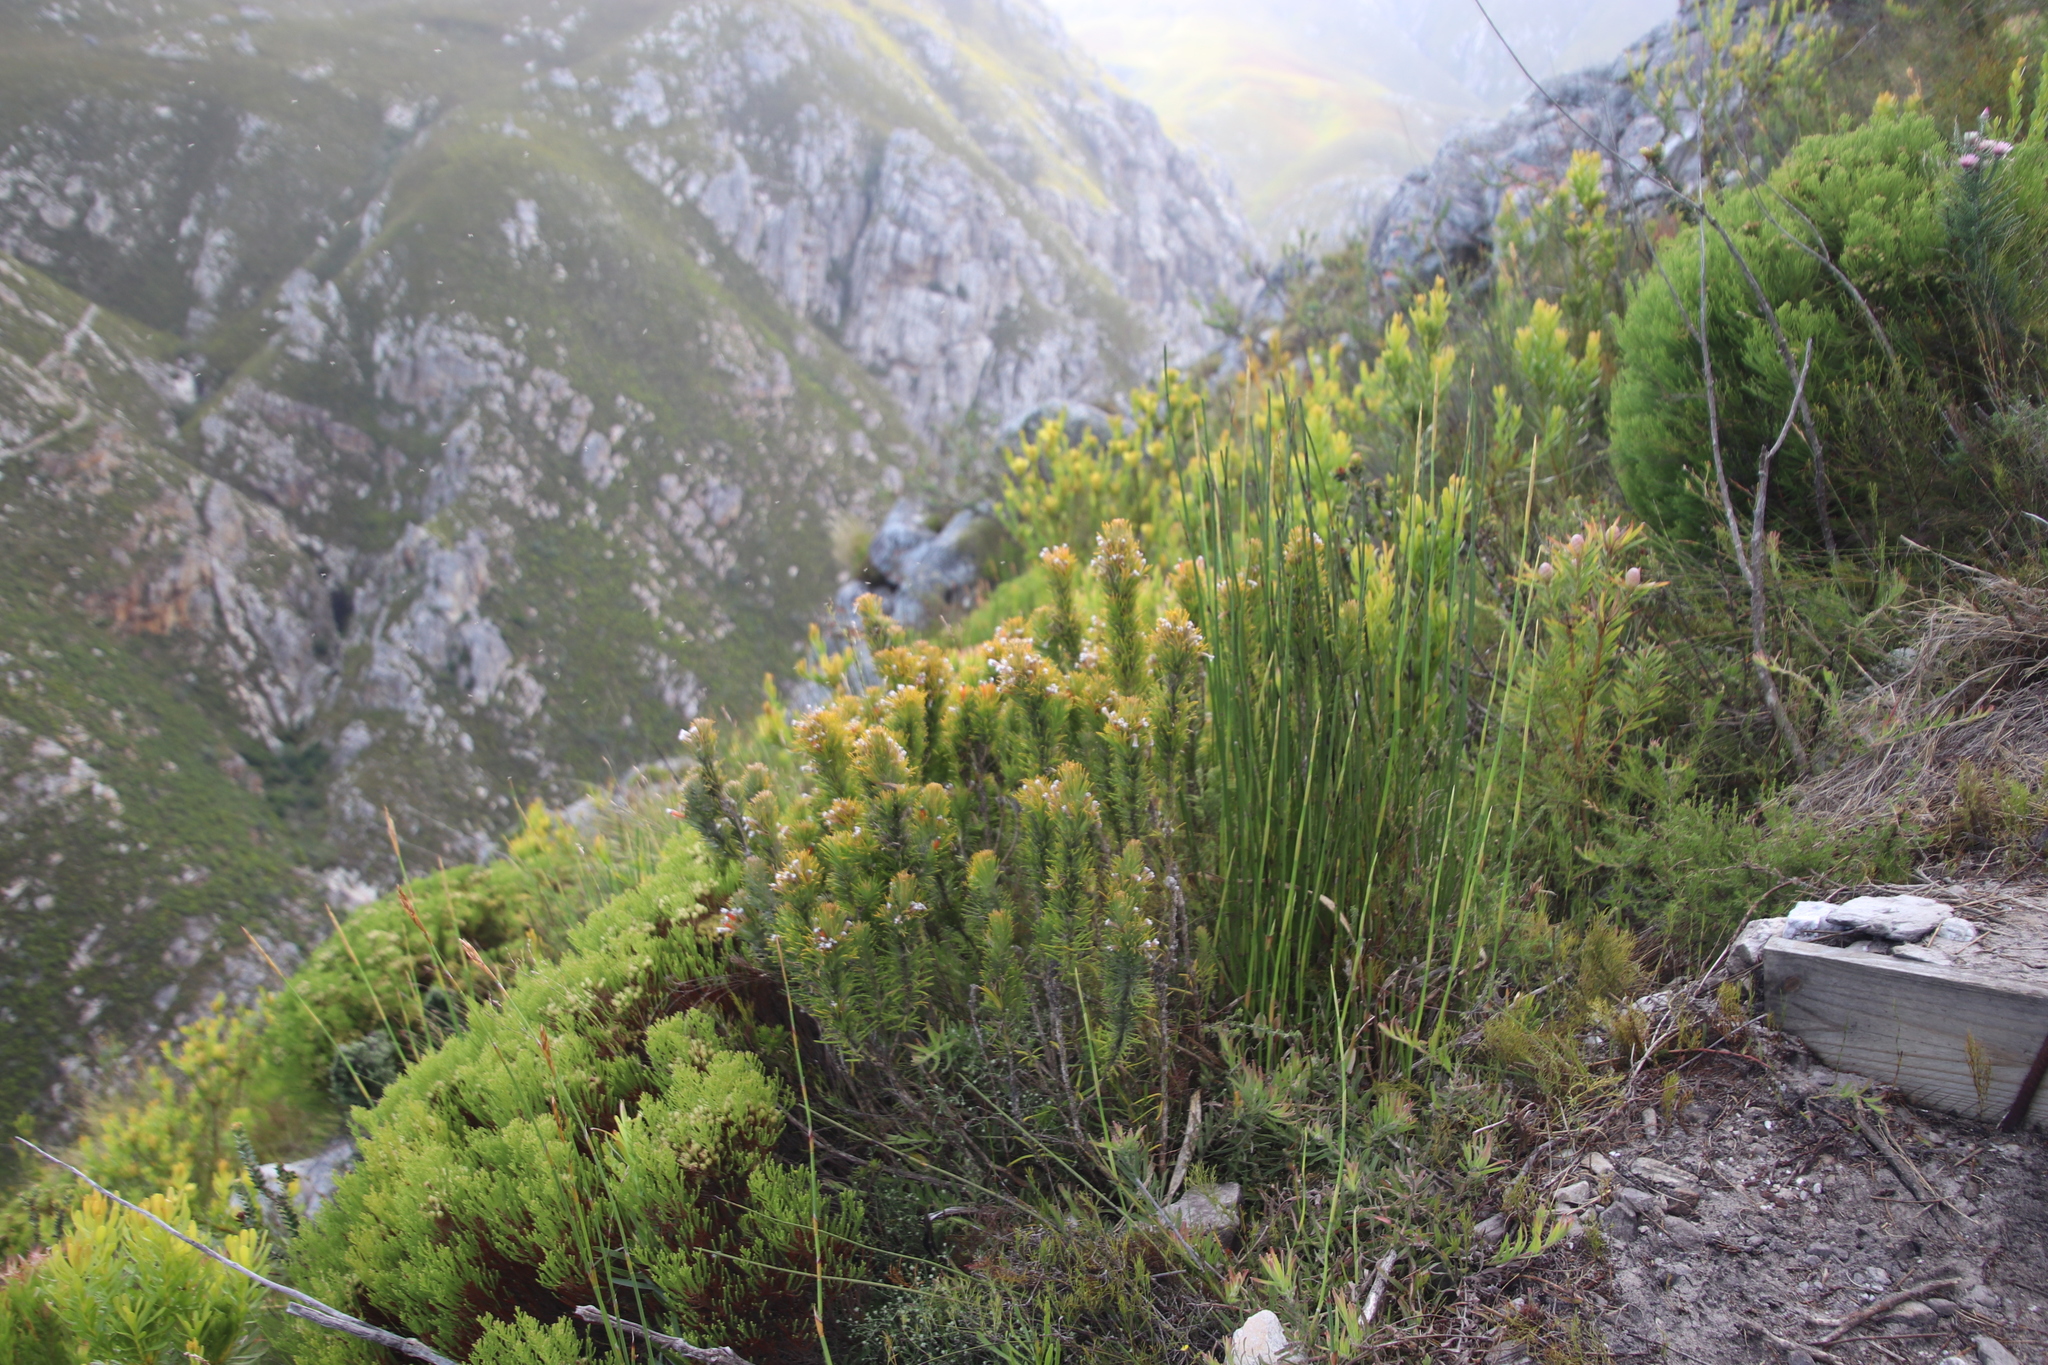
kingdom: Plantae
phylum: Tracheophyta
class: Magnoliopsida
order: Lamiales
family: Stilbaceae
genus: Retzia
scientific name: Retzia capensis
